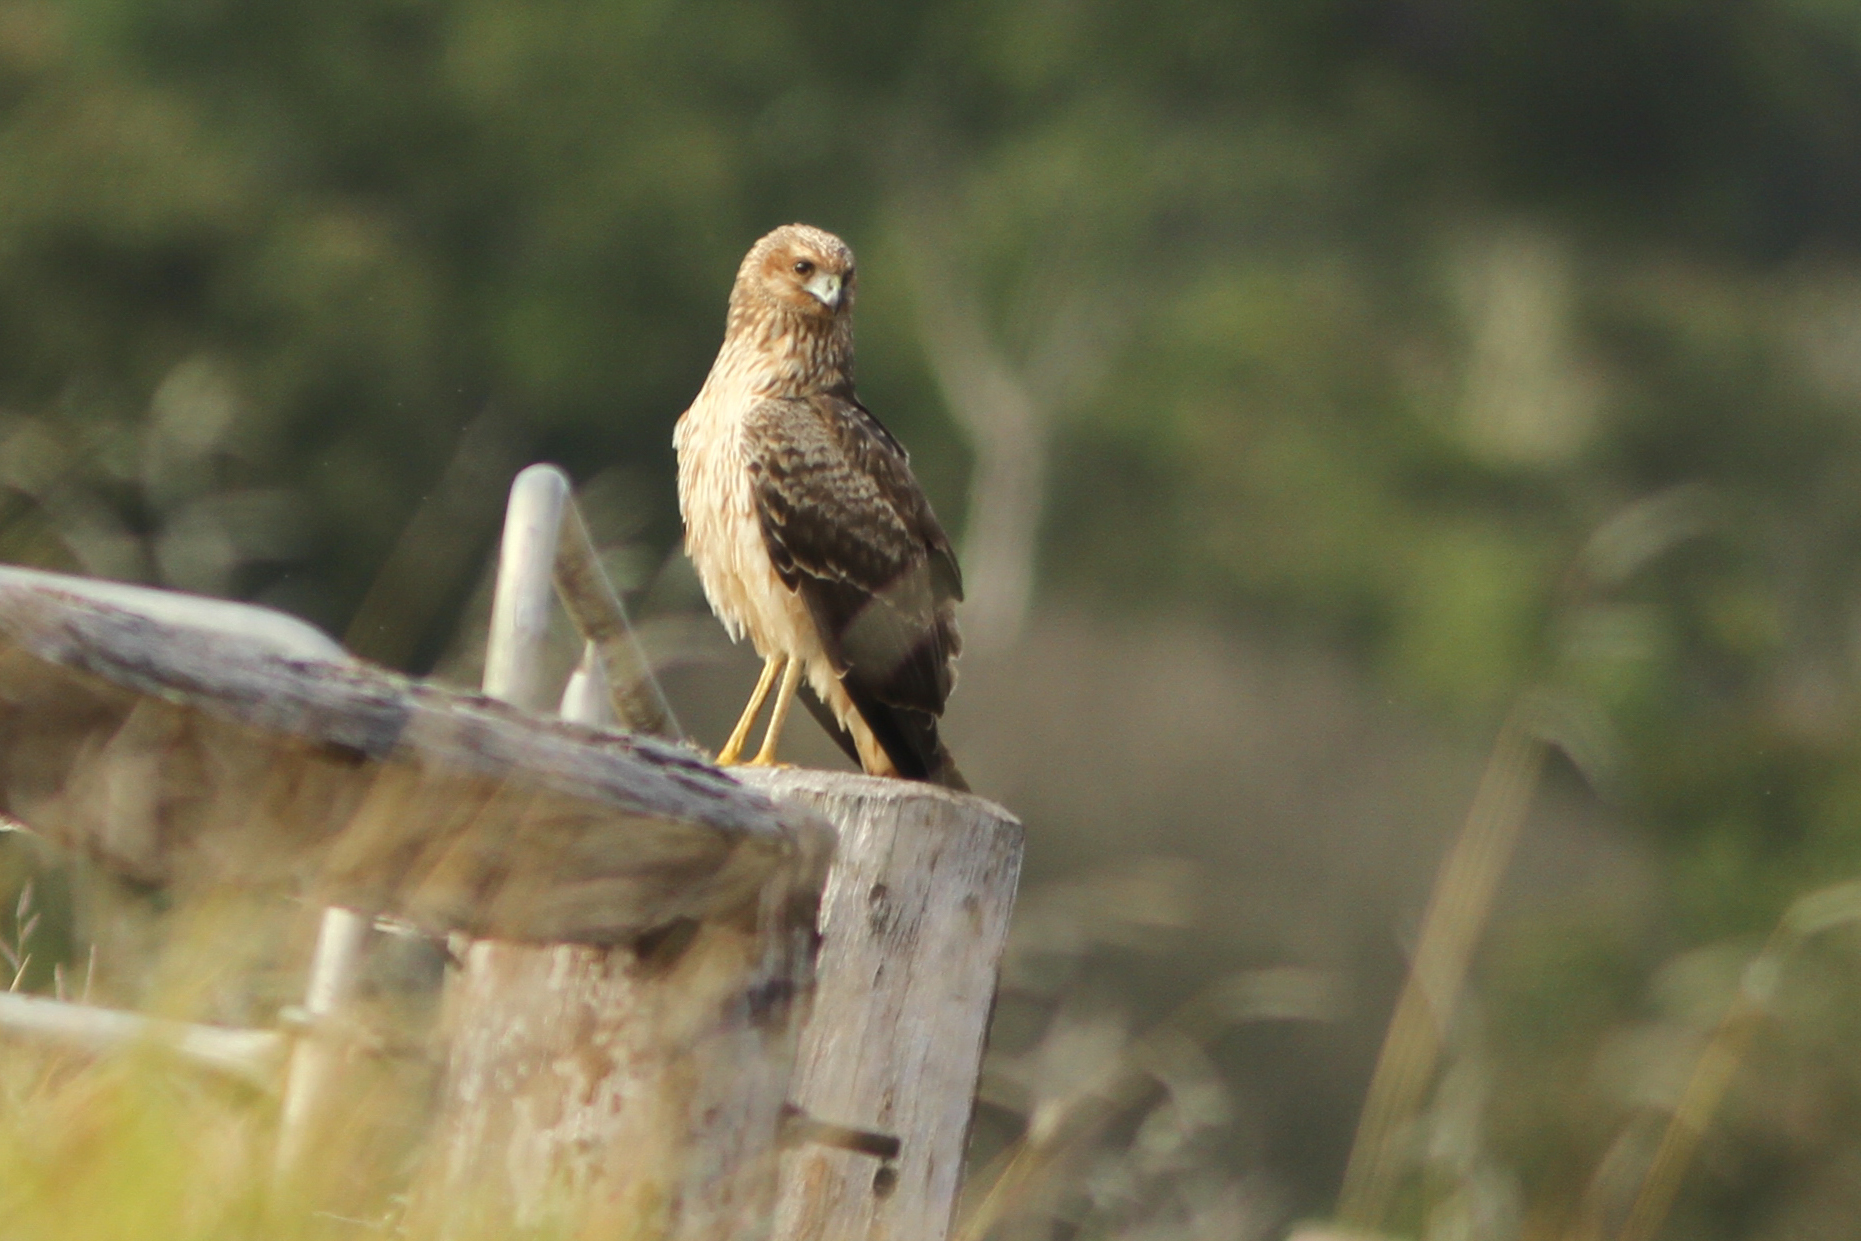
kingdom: Animalia
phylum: Chordata
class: Aves
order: Accipitriformes
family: Accipitridae
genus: Circus
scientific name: Circus assimilis
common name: Spotted harrier
